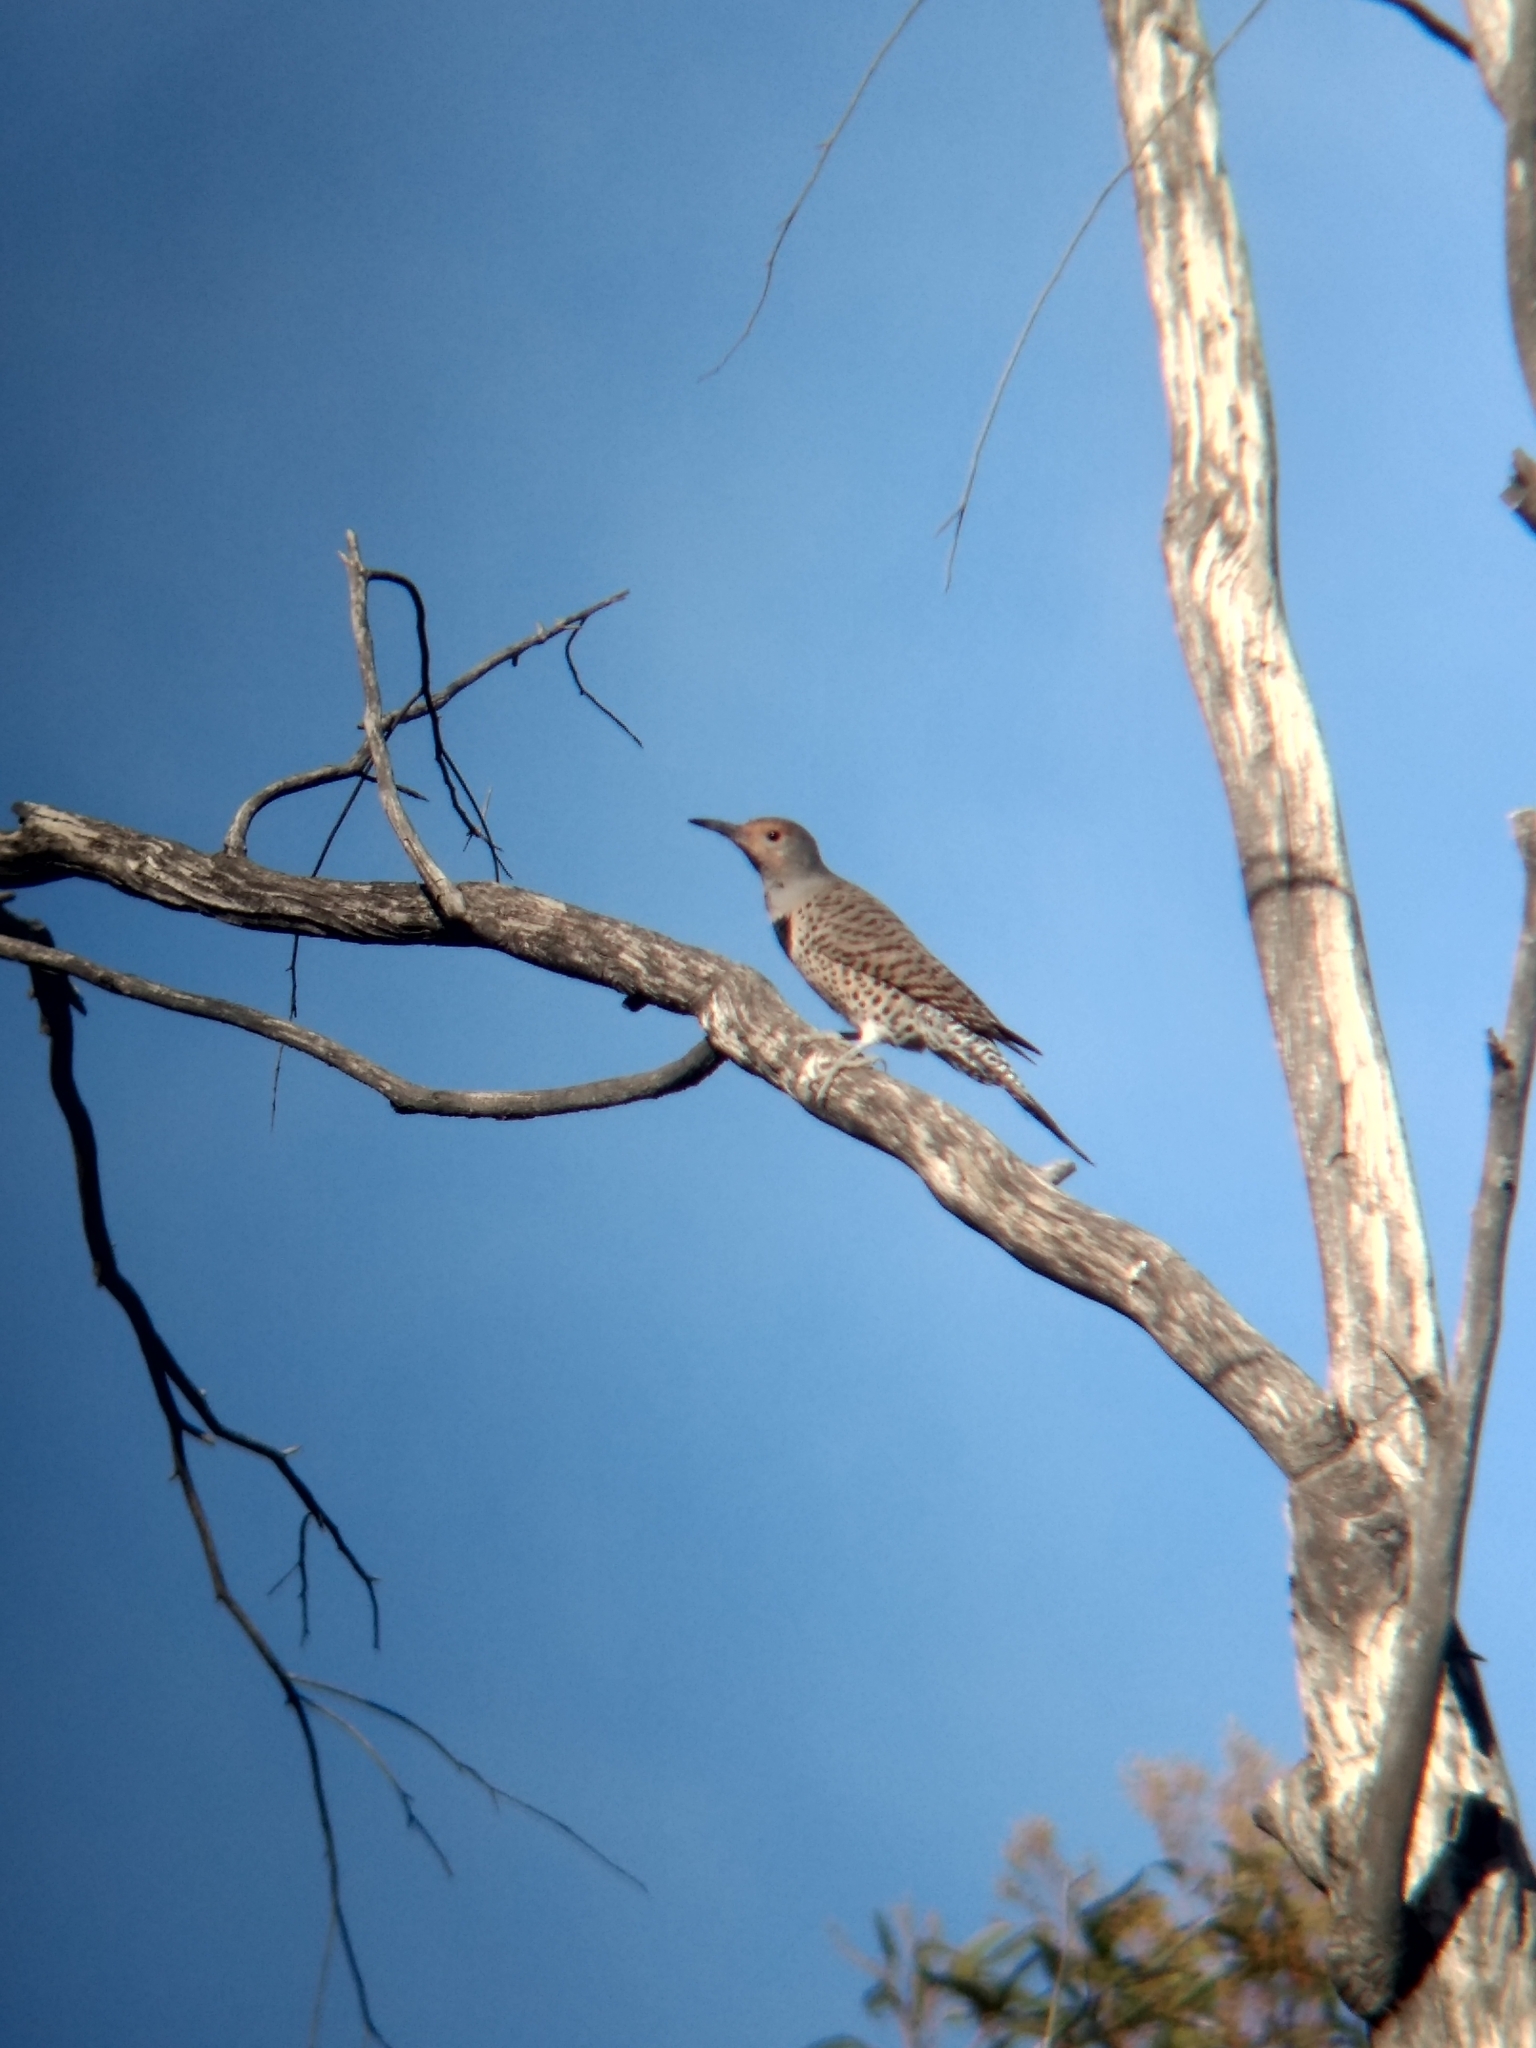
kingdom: Animalia
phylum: Chordata
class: Aves
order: Piciformes
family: Picidae
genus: Colaptes
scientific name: Colaptes auratus
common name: Northern flicker
